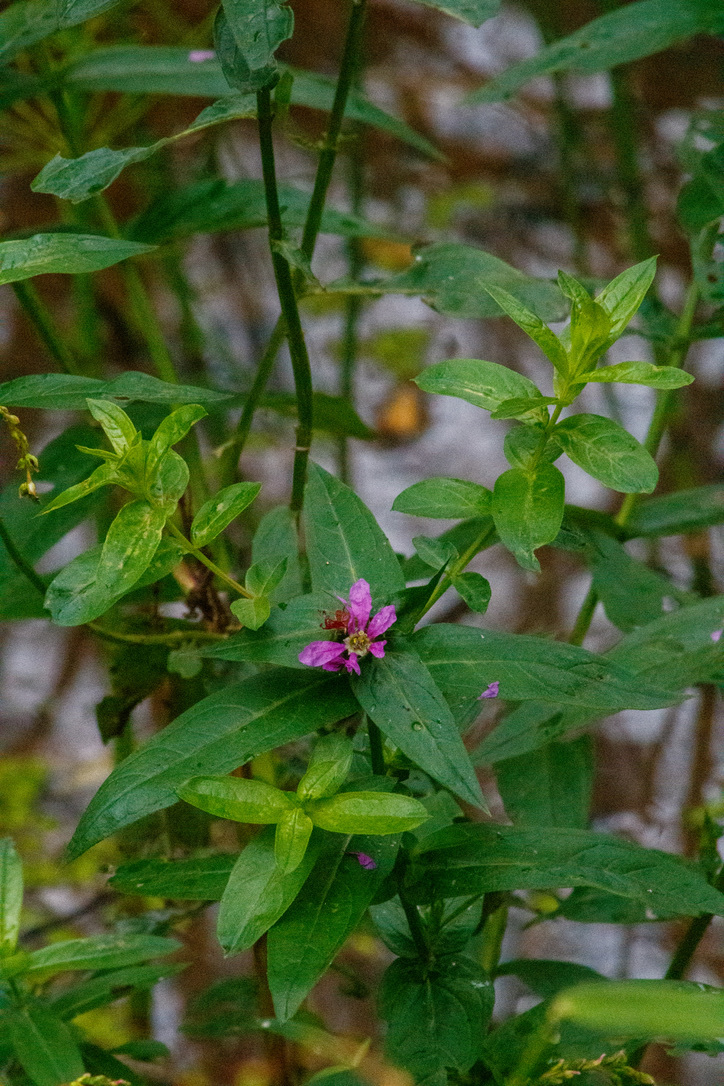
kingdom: Plantae
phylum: Tracheophyta
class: Magnoliopsida
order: Myrtales
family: Lythraceae
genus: Lythrum
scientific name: Lythrum salicaria
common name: Purple loosestrife
